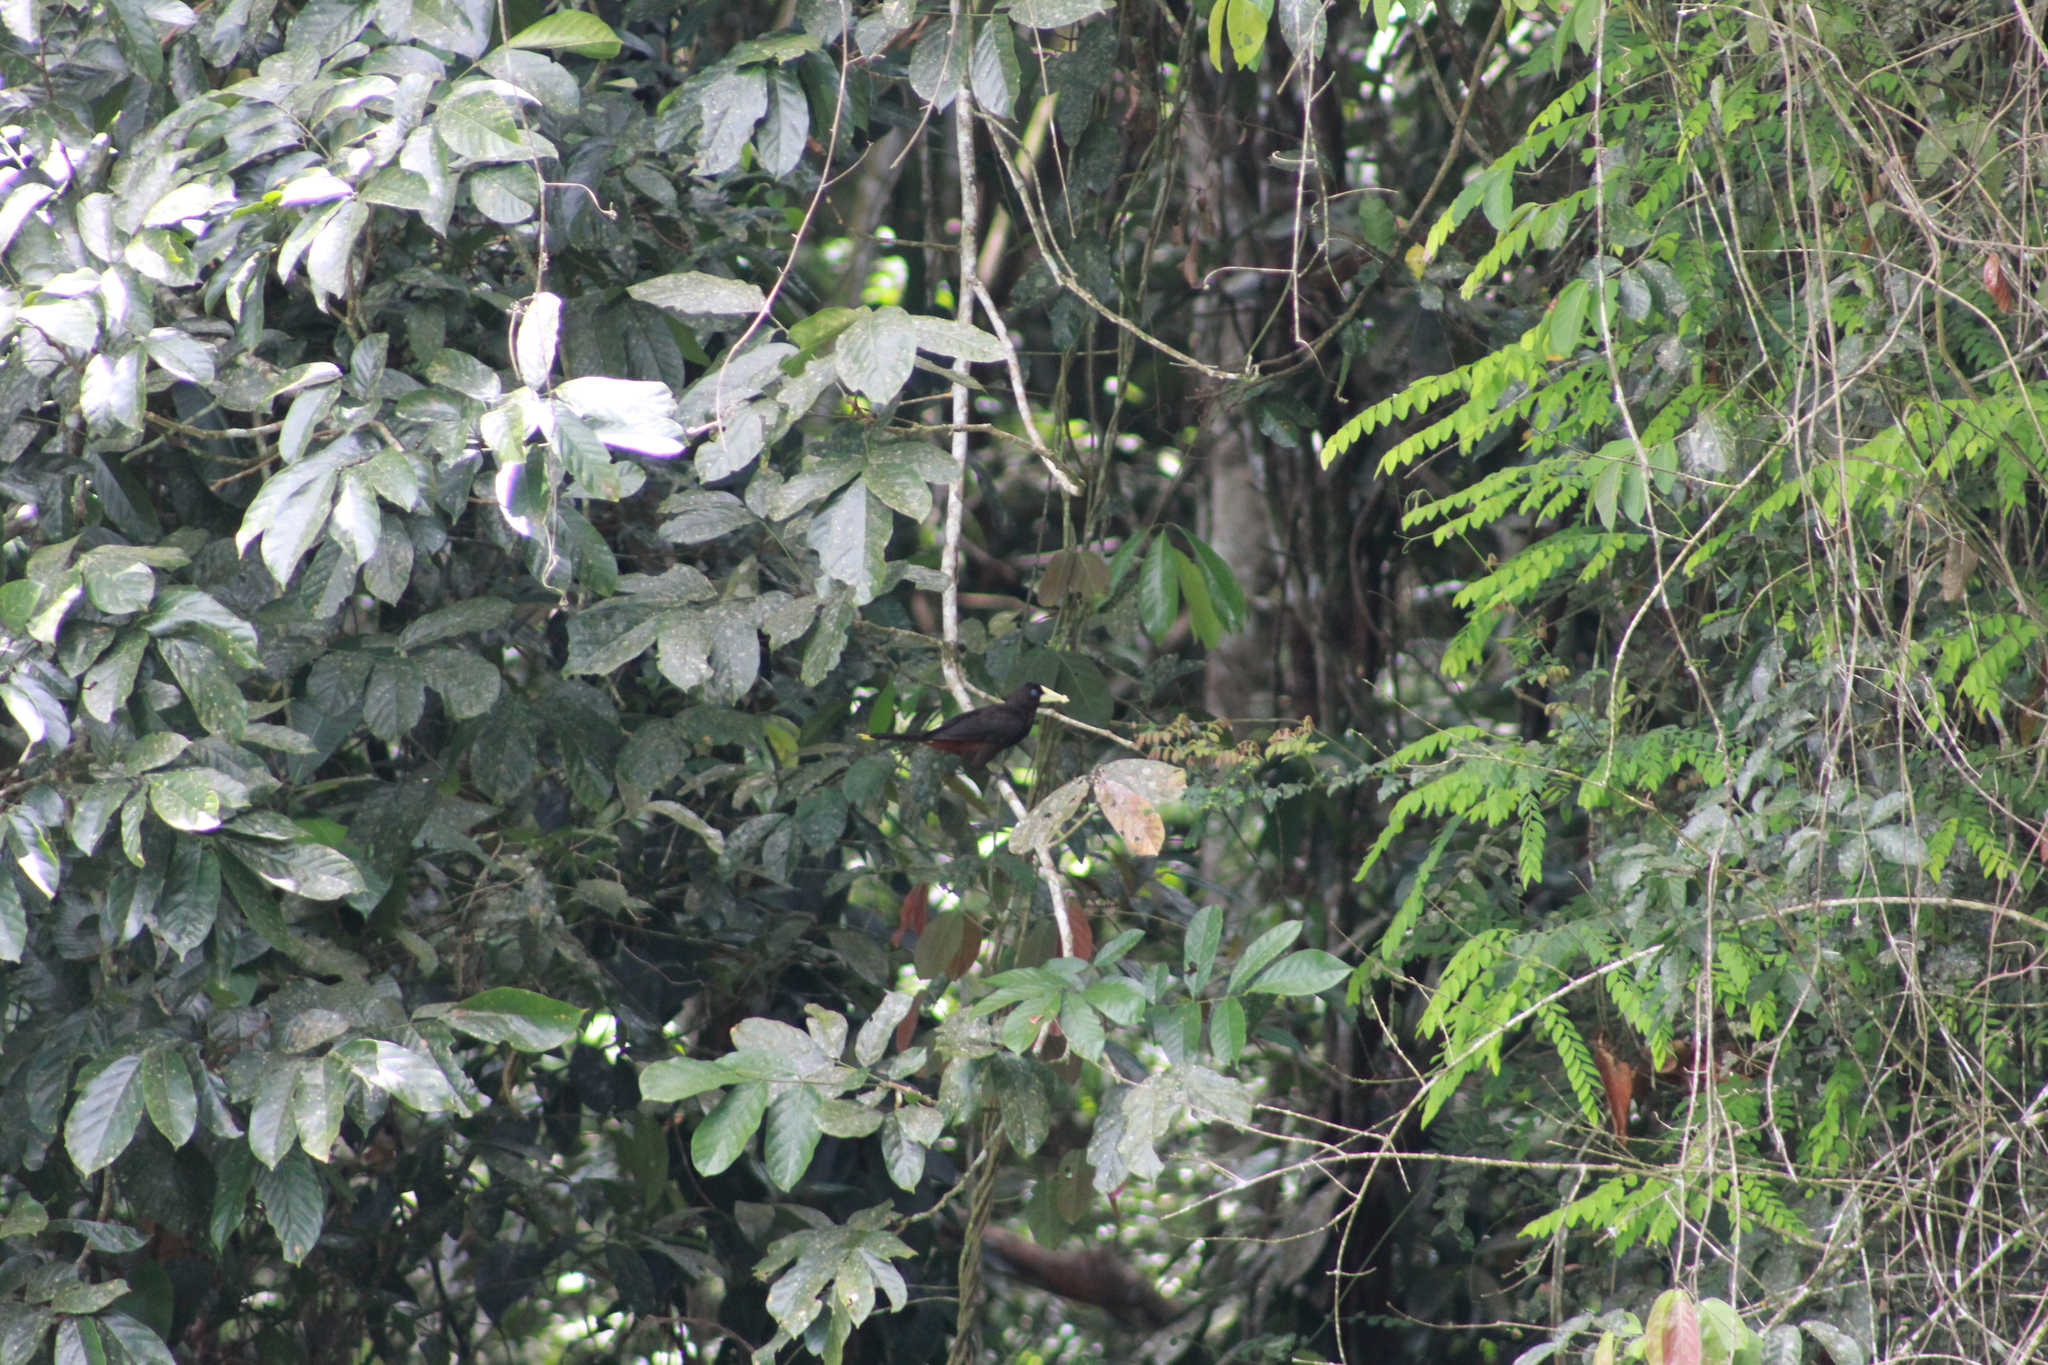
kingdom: Animalia
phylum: Chordata
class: Aves
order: Passeriformes
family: Icteridae
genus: Psarocolius
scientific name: Psarocolius decumanus
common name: Crested oropendola
